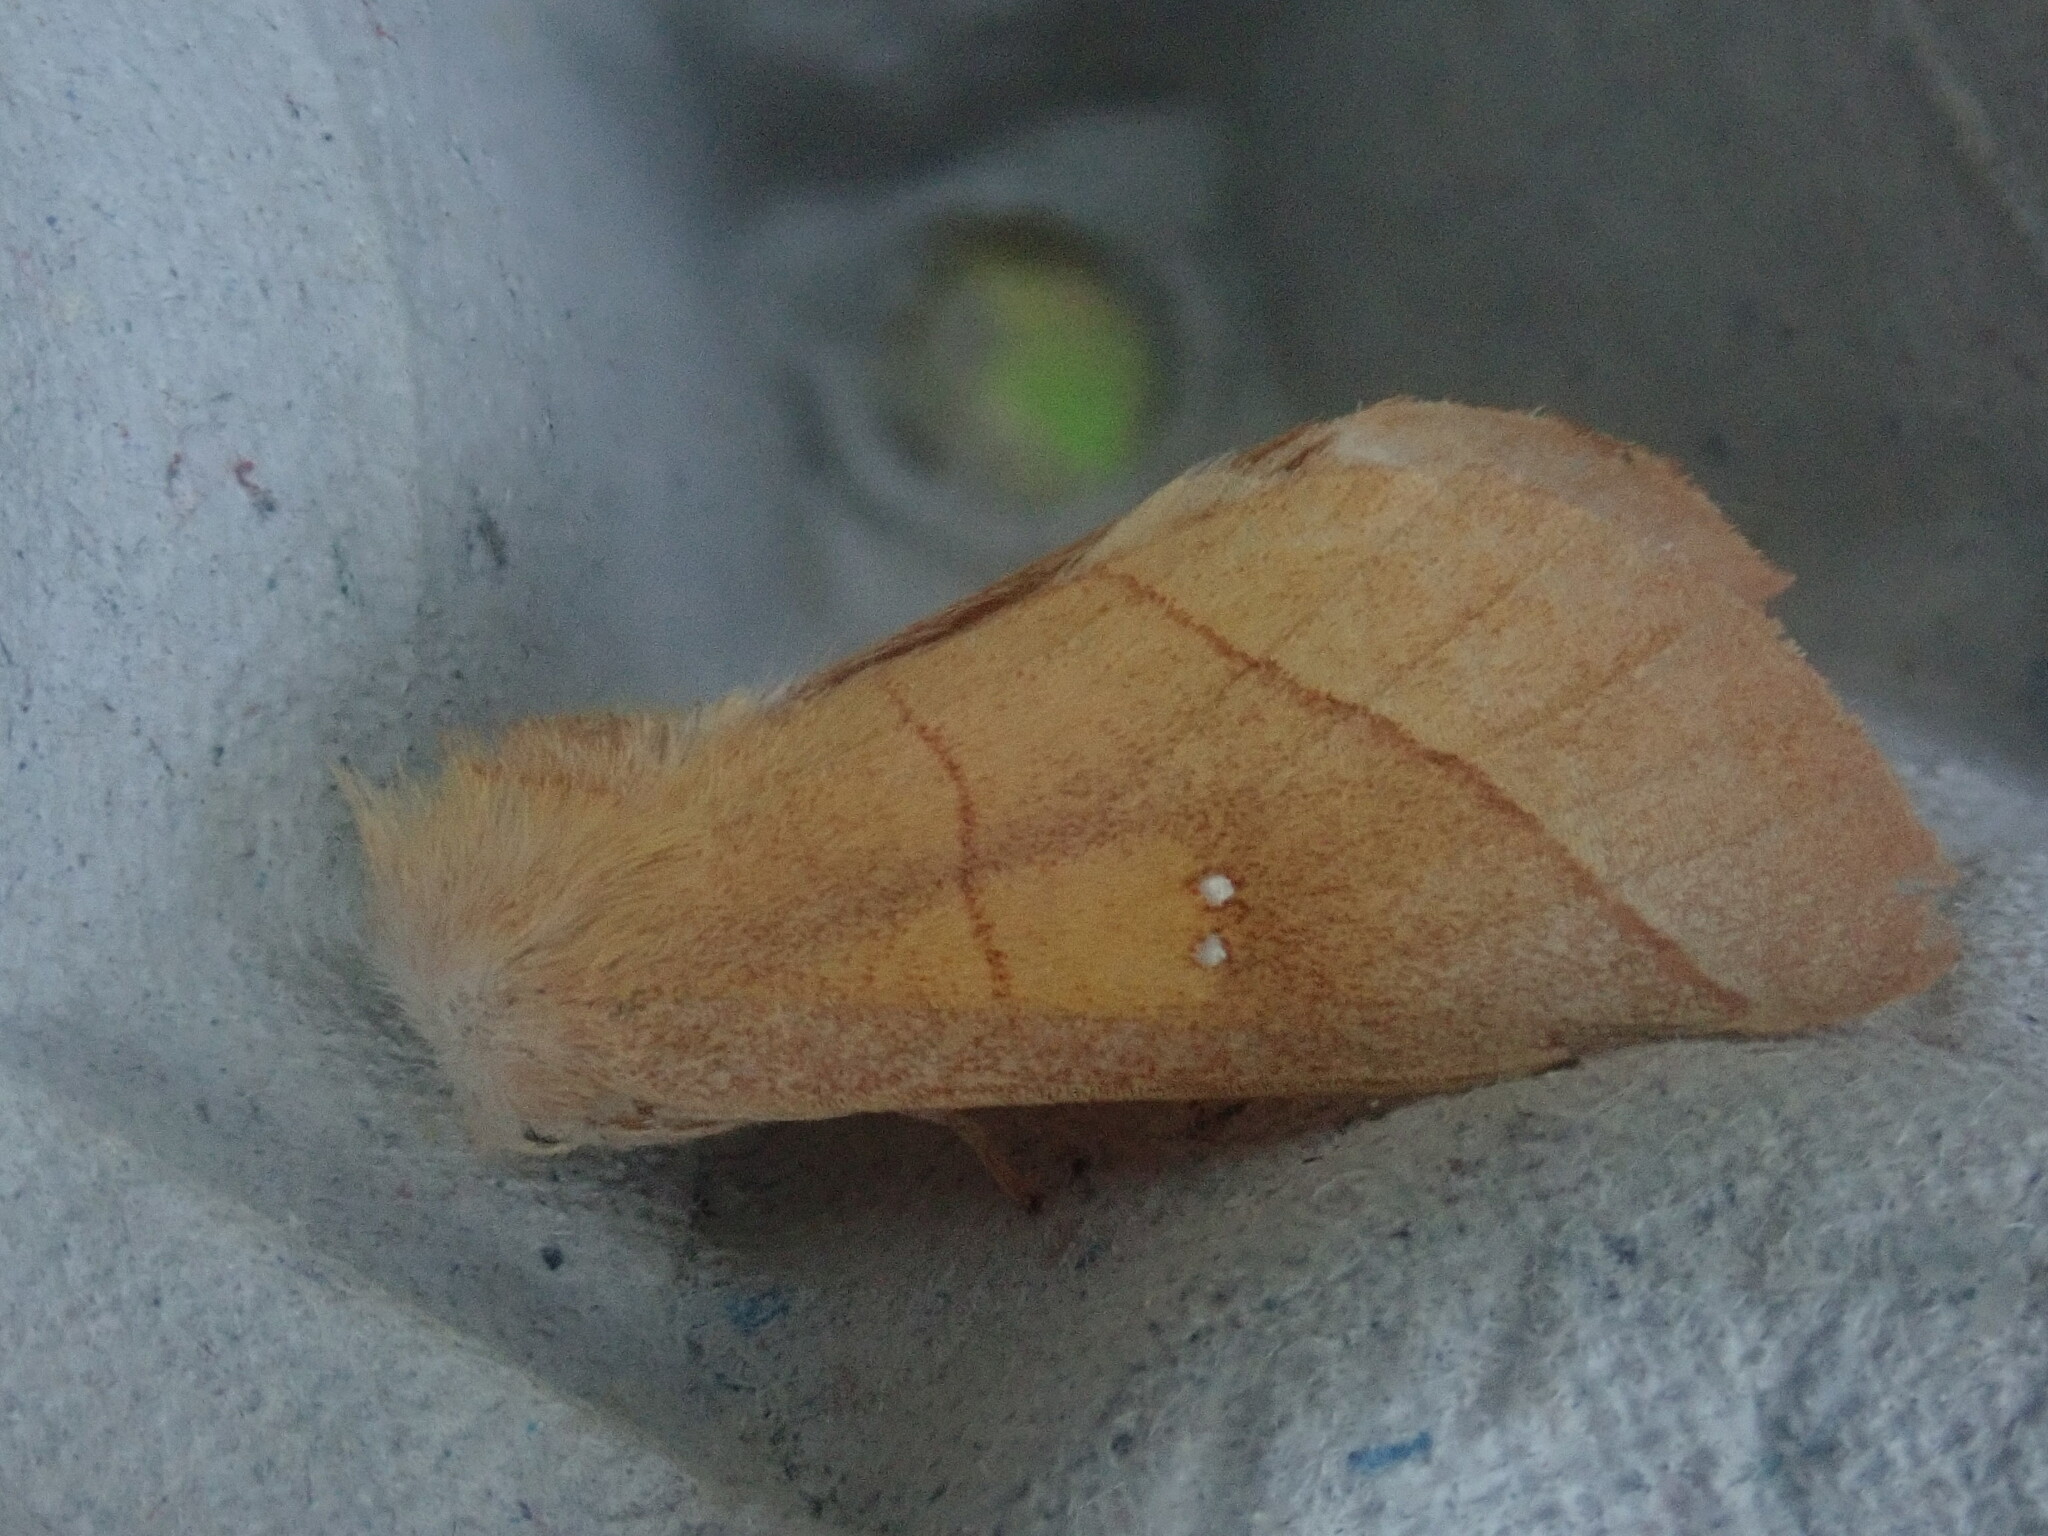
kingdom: Animalia
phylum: Arthropoda
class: Insecta
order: Lepidoptera
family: Notodontidae
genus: Nadata
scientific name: Nadata gibbosa
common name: White-dotted prominent
